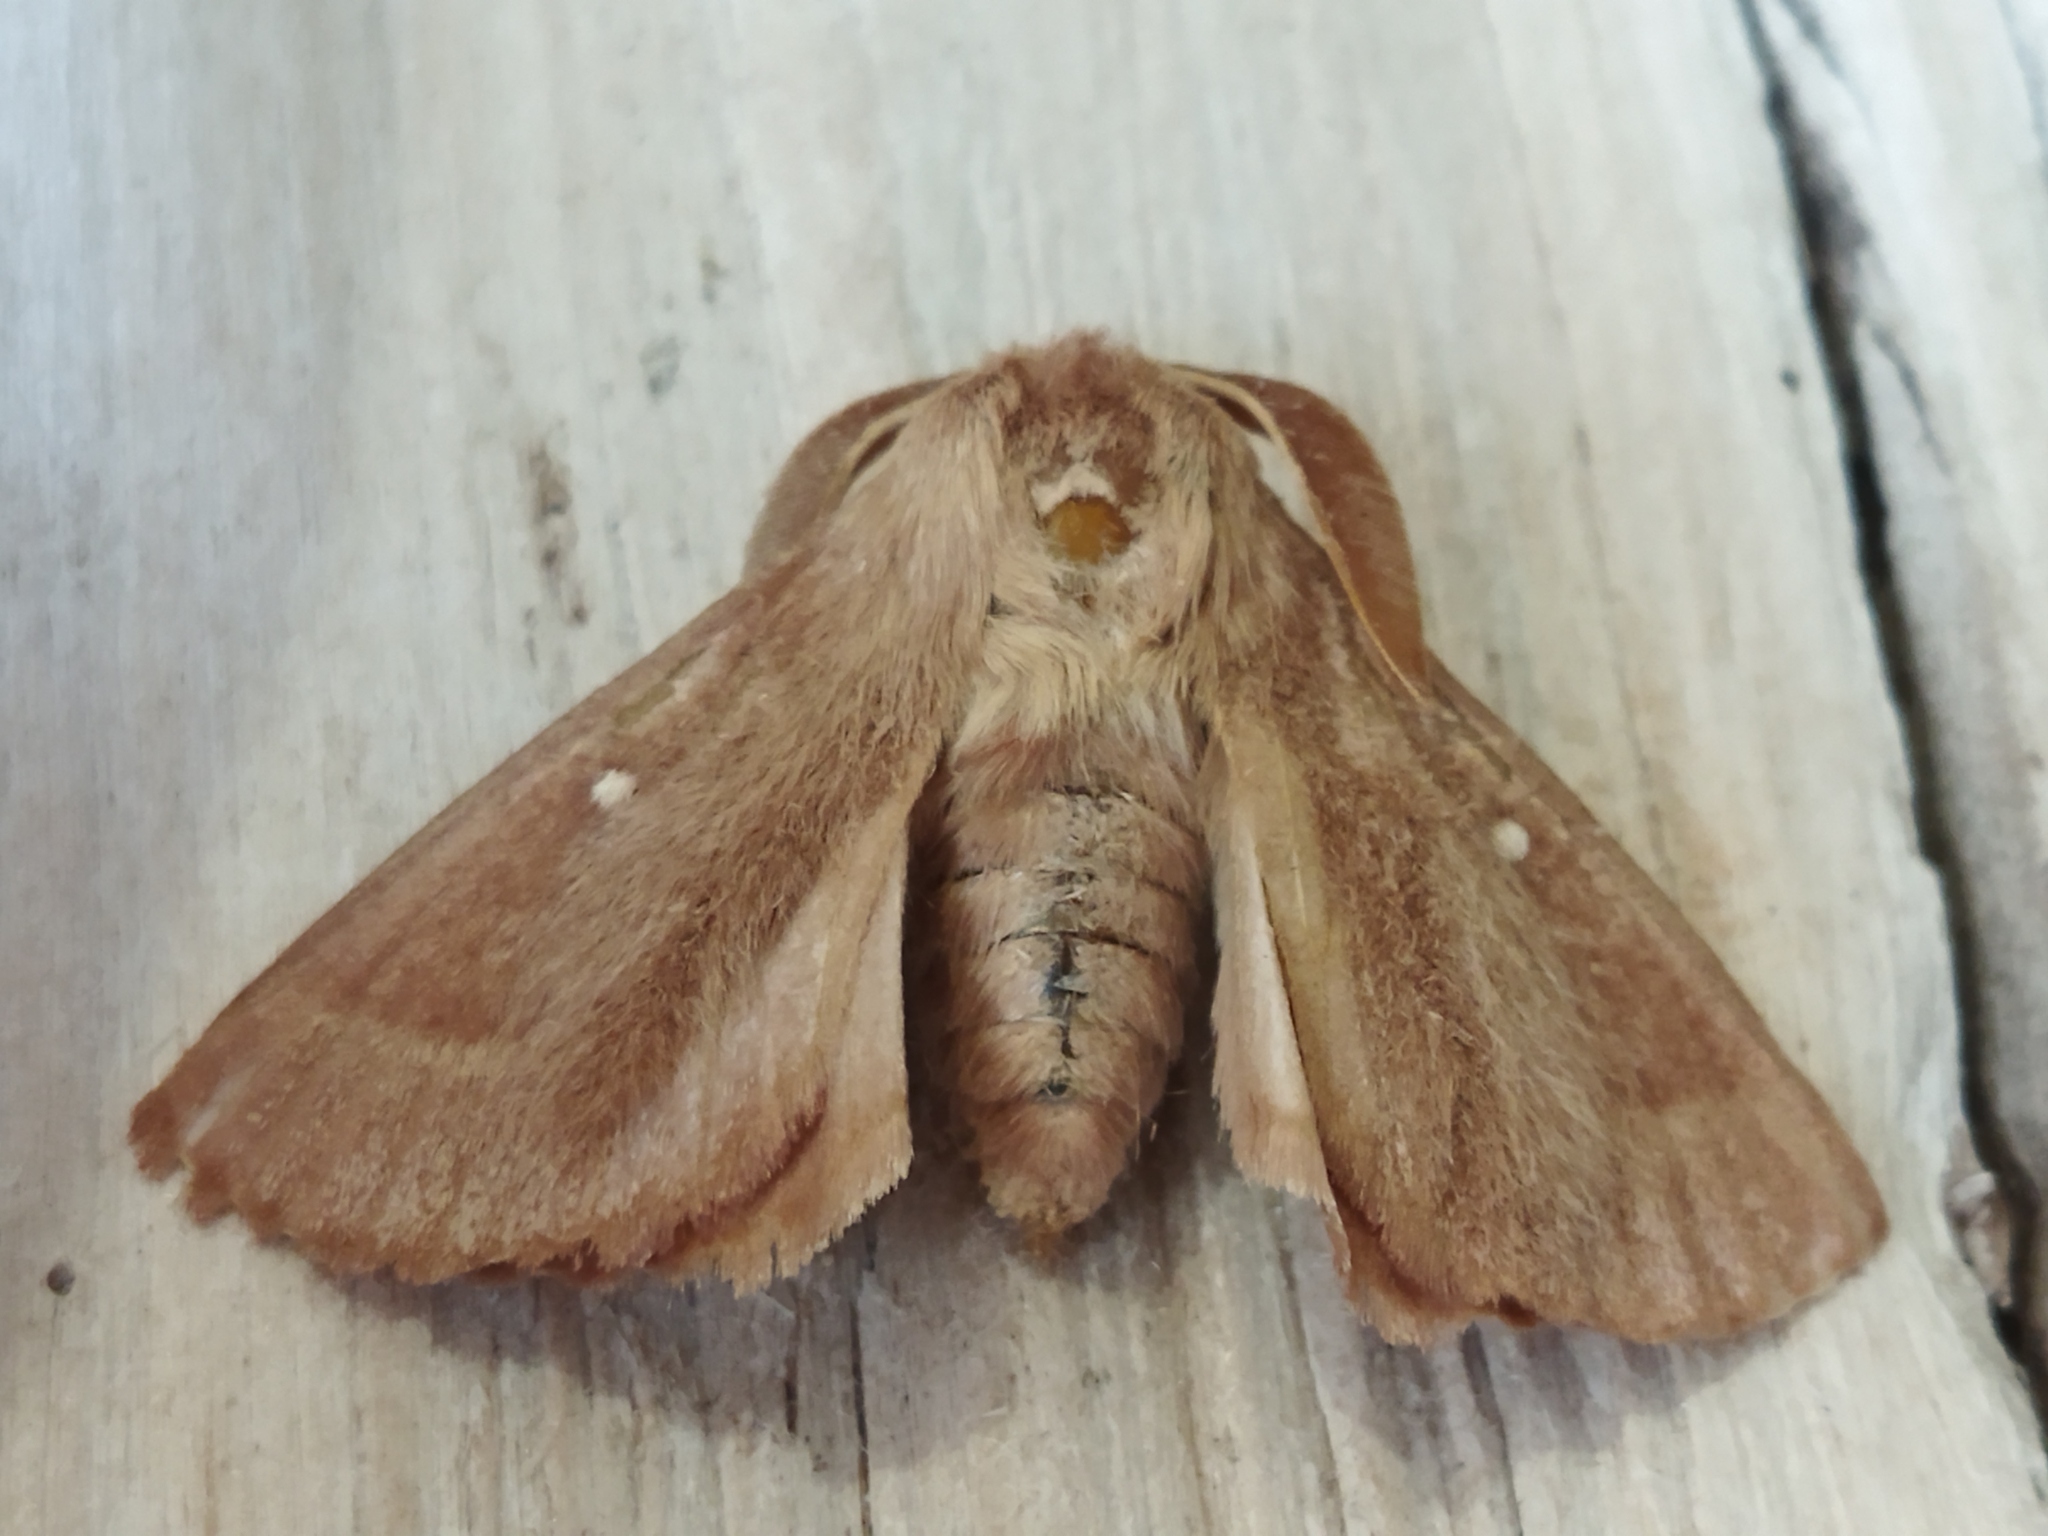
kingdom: Animalia
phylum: Arthropoda
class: Insecta
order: Lepidoptera
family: Lasiocampidae
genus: Lasiocampa
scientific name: Lasiocampa trifolii
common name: Grass eggar
